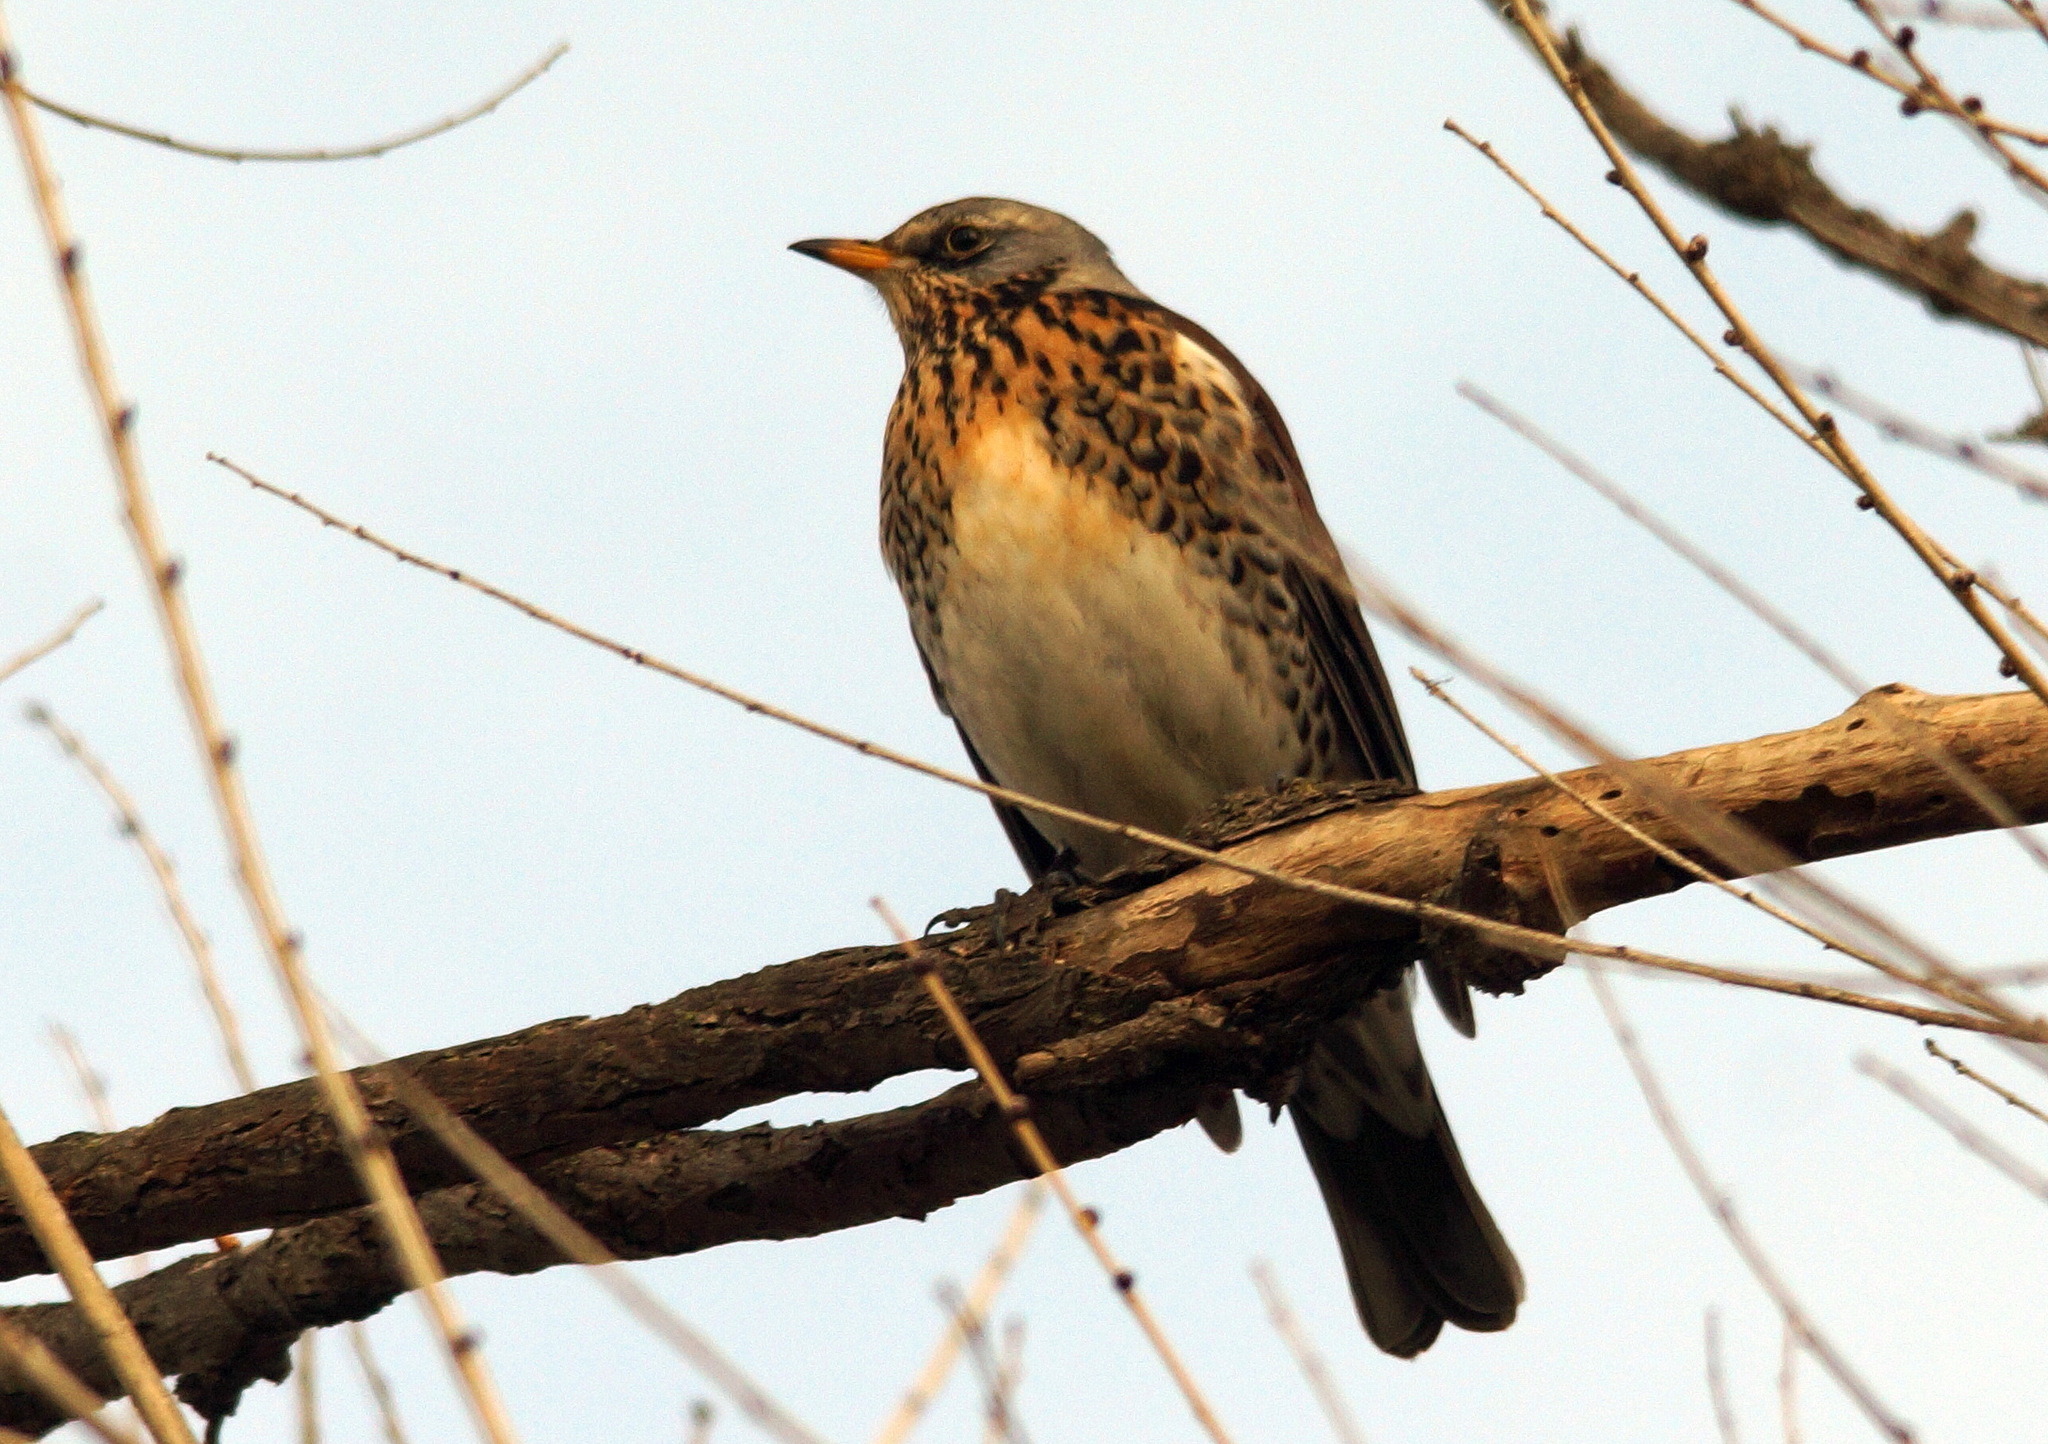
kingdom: Animalia
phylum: Chordata
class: Aves
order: Passeriformes
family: Turdidae
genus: Turdus
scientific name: Turdus pilaris
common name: Fieldfare
